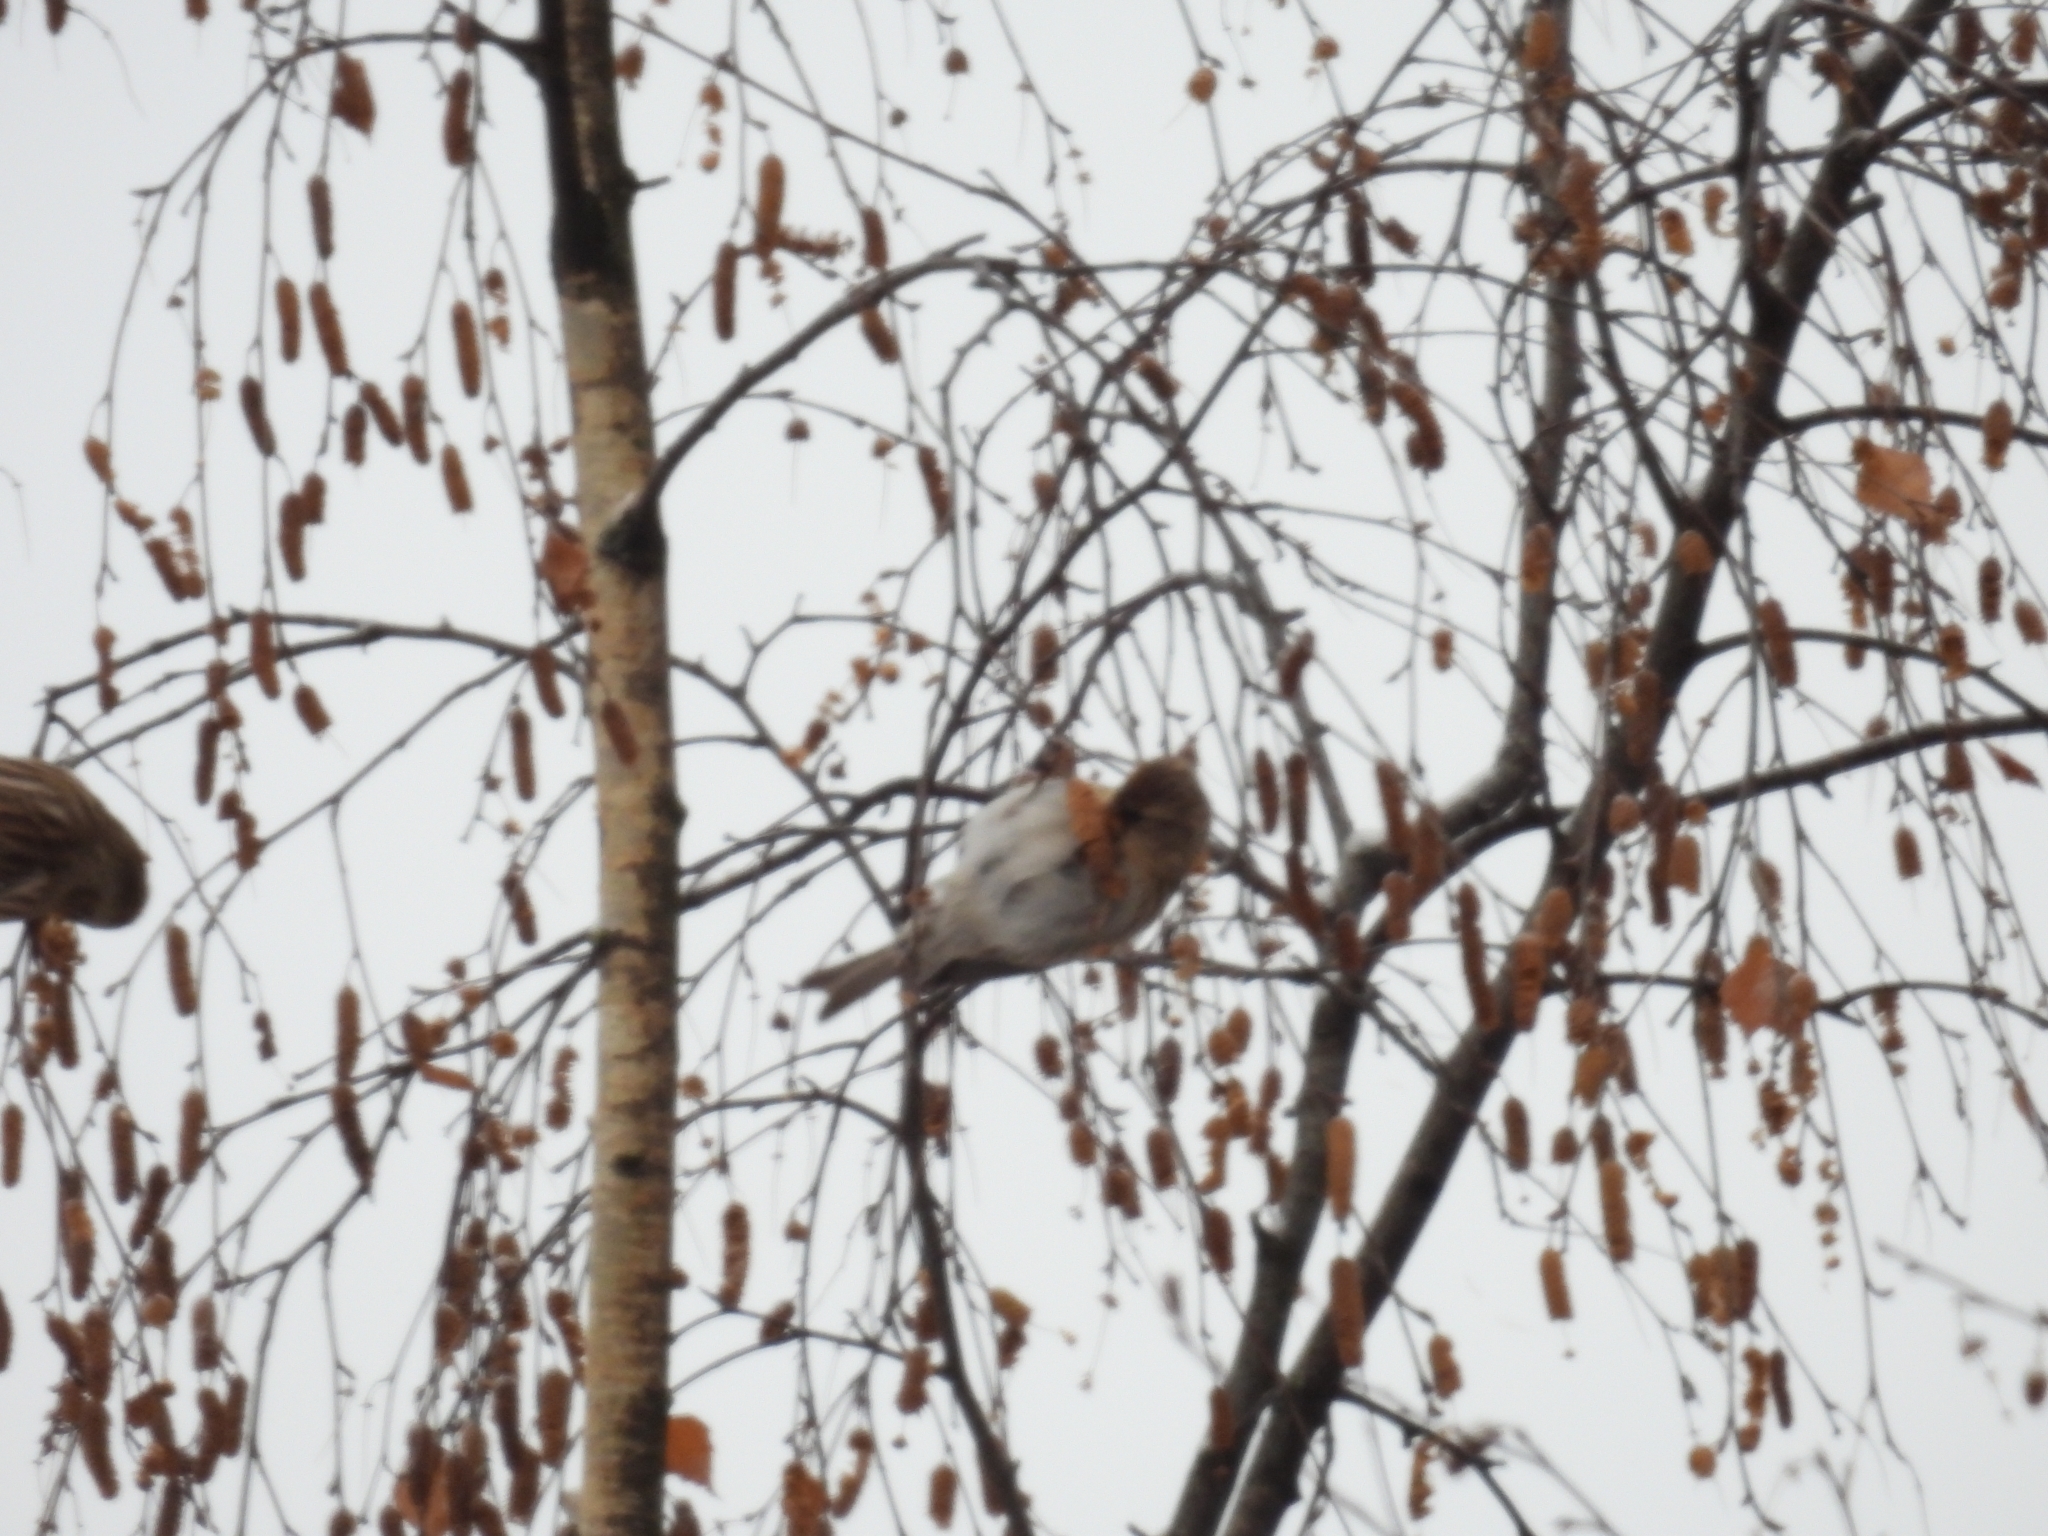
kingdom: Animalia
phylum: Chordata
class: Aves
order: Passeriformes
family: Fringillidae
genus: Acanthis
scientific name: Acanthis flammea
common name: Common redpoll
